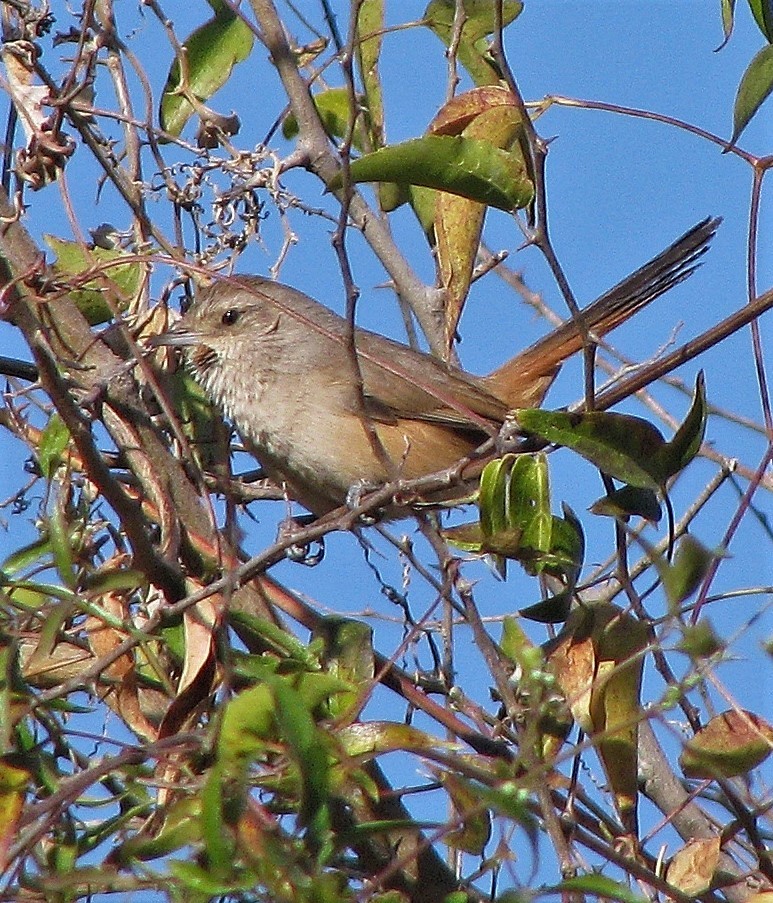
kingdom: Animalia
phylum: Chordata
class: Aves
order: Passeriformes
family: Furnariidae
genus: Asthenes
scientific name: Asthenes baeri
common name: Short-billed canastero
